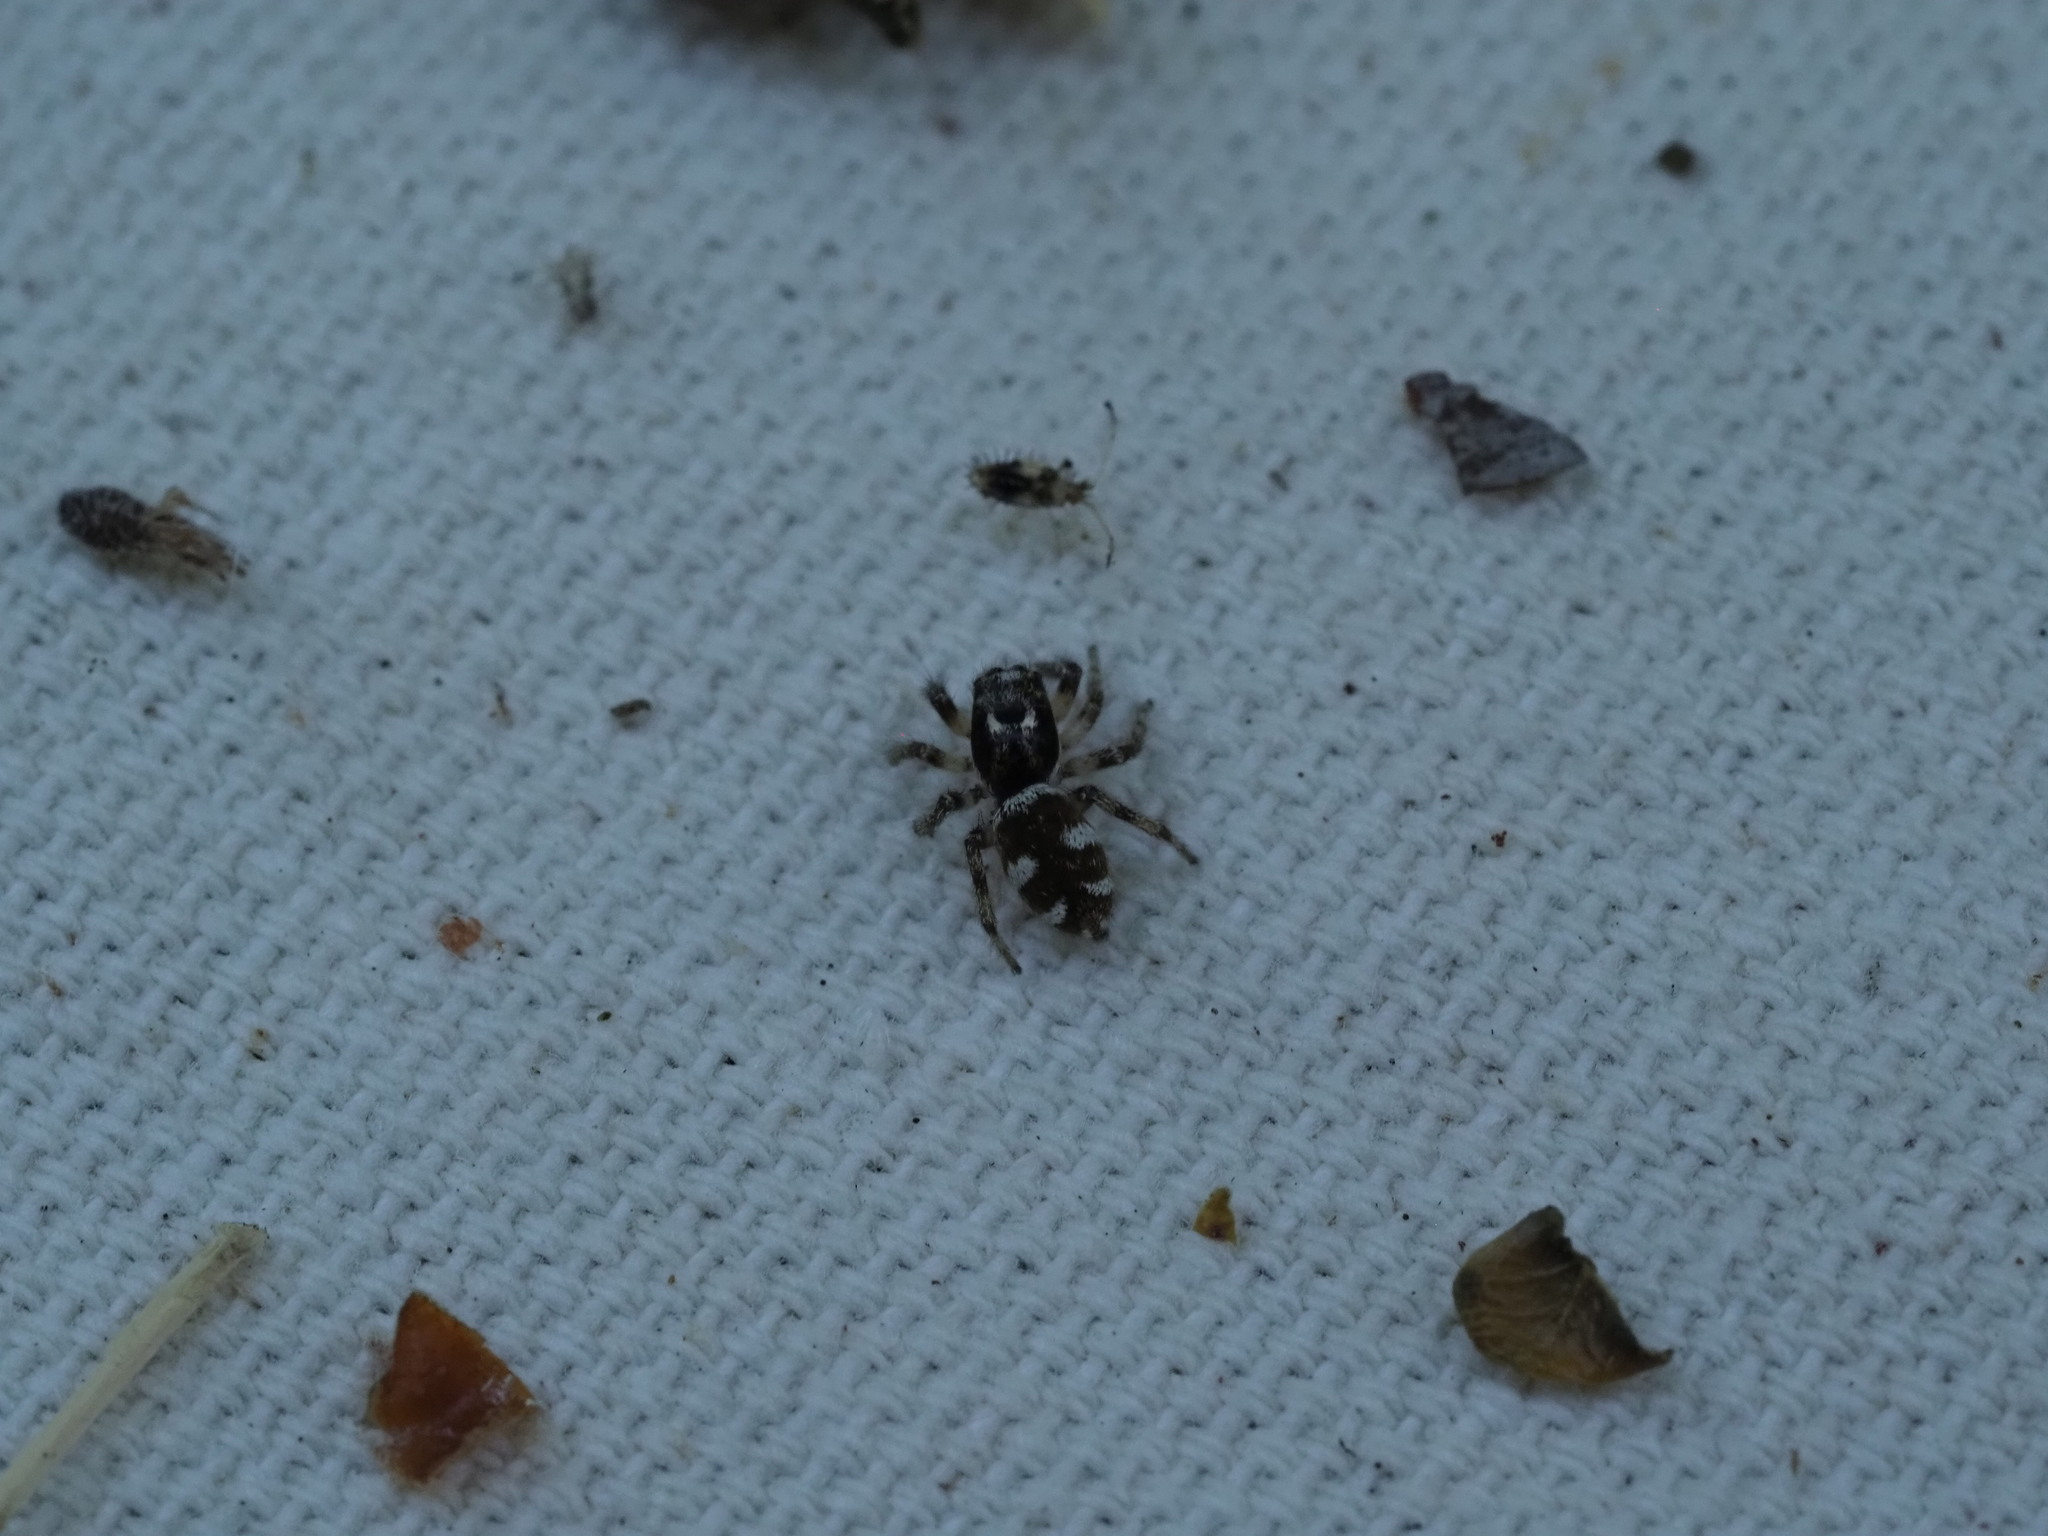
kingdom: Animalia
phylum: Arthropoda
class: Arachnida
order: Araneae
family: Salticidae
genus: Salticus
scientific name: Salticus scenicus
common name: Zebra jumper
